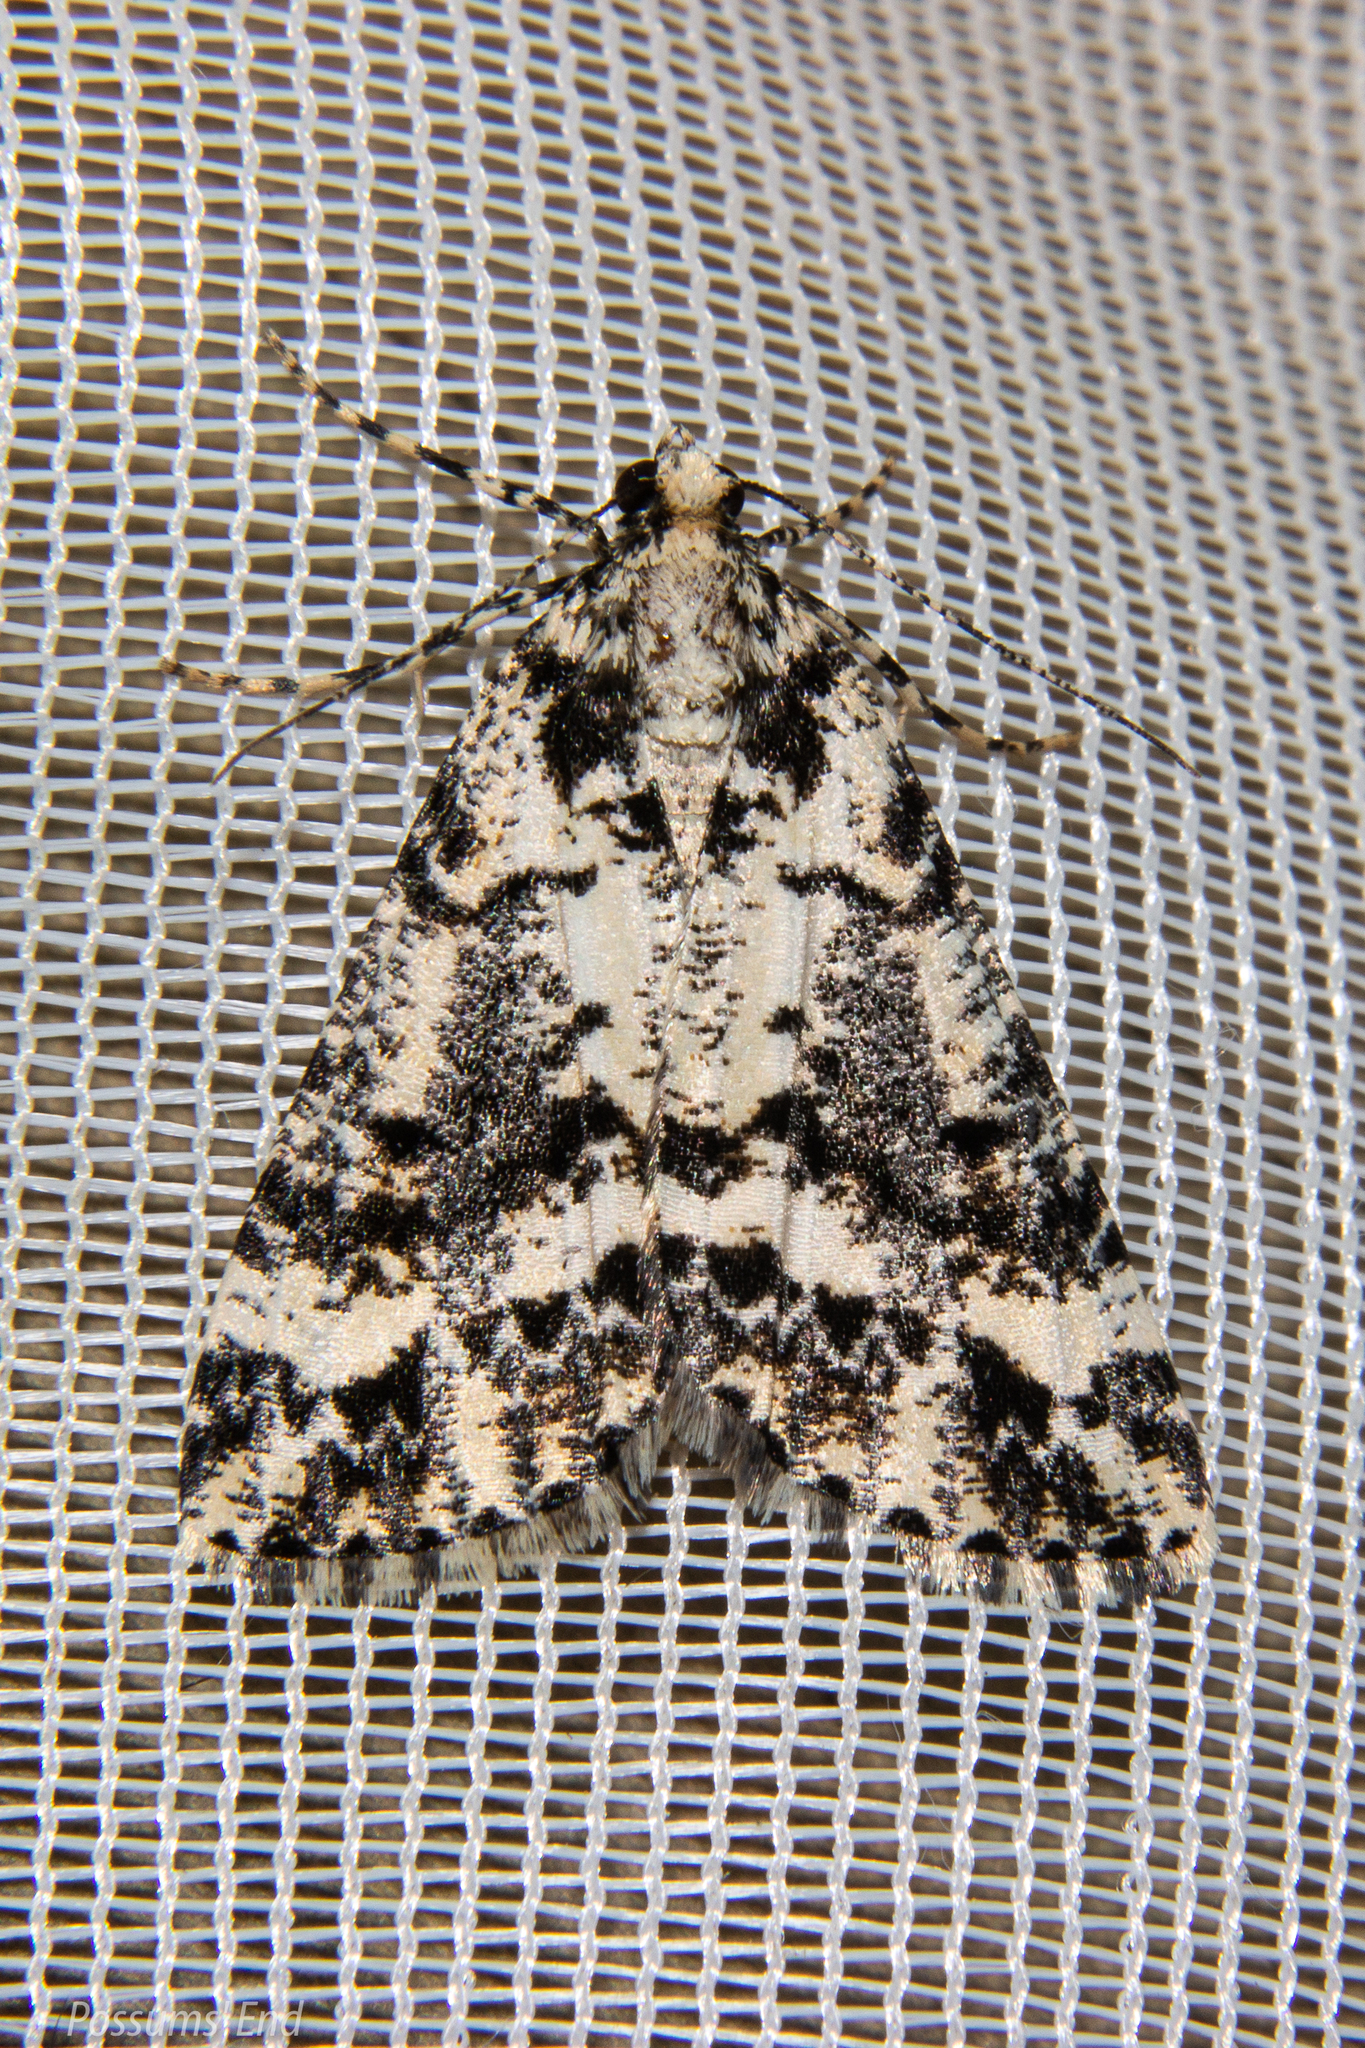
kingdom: Animalia
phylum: Arthropoda
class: Insecta
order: Lepidoptera
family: Geometridae
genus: Pseudocoremia
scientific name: Pseudocoremia leucelaea
